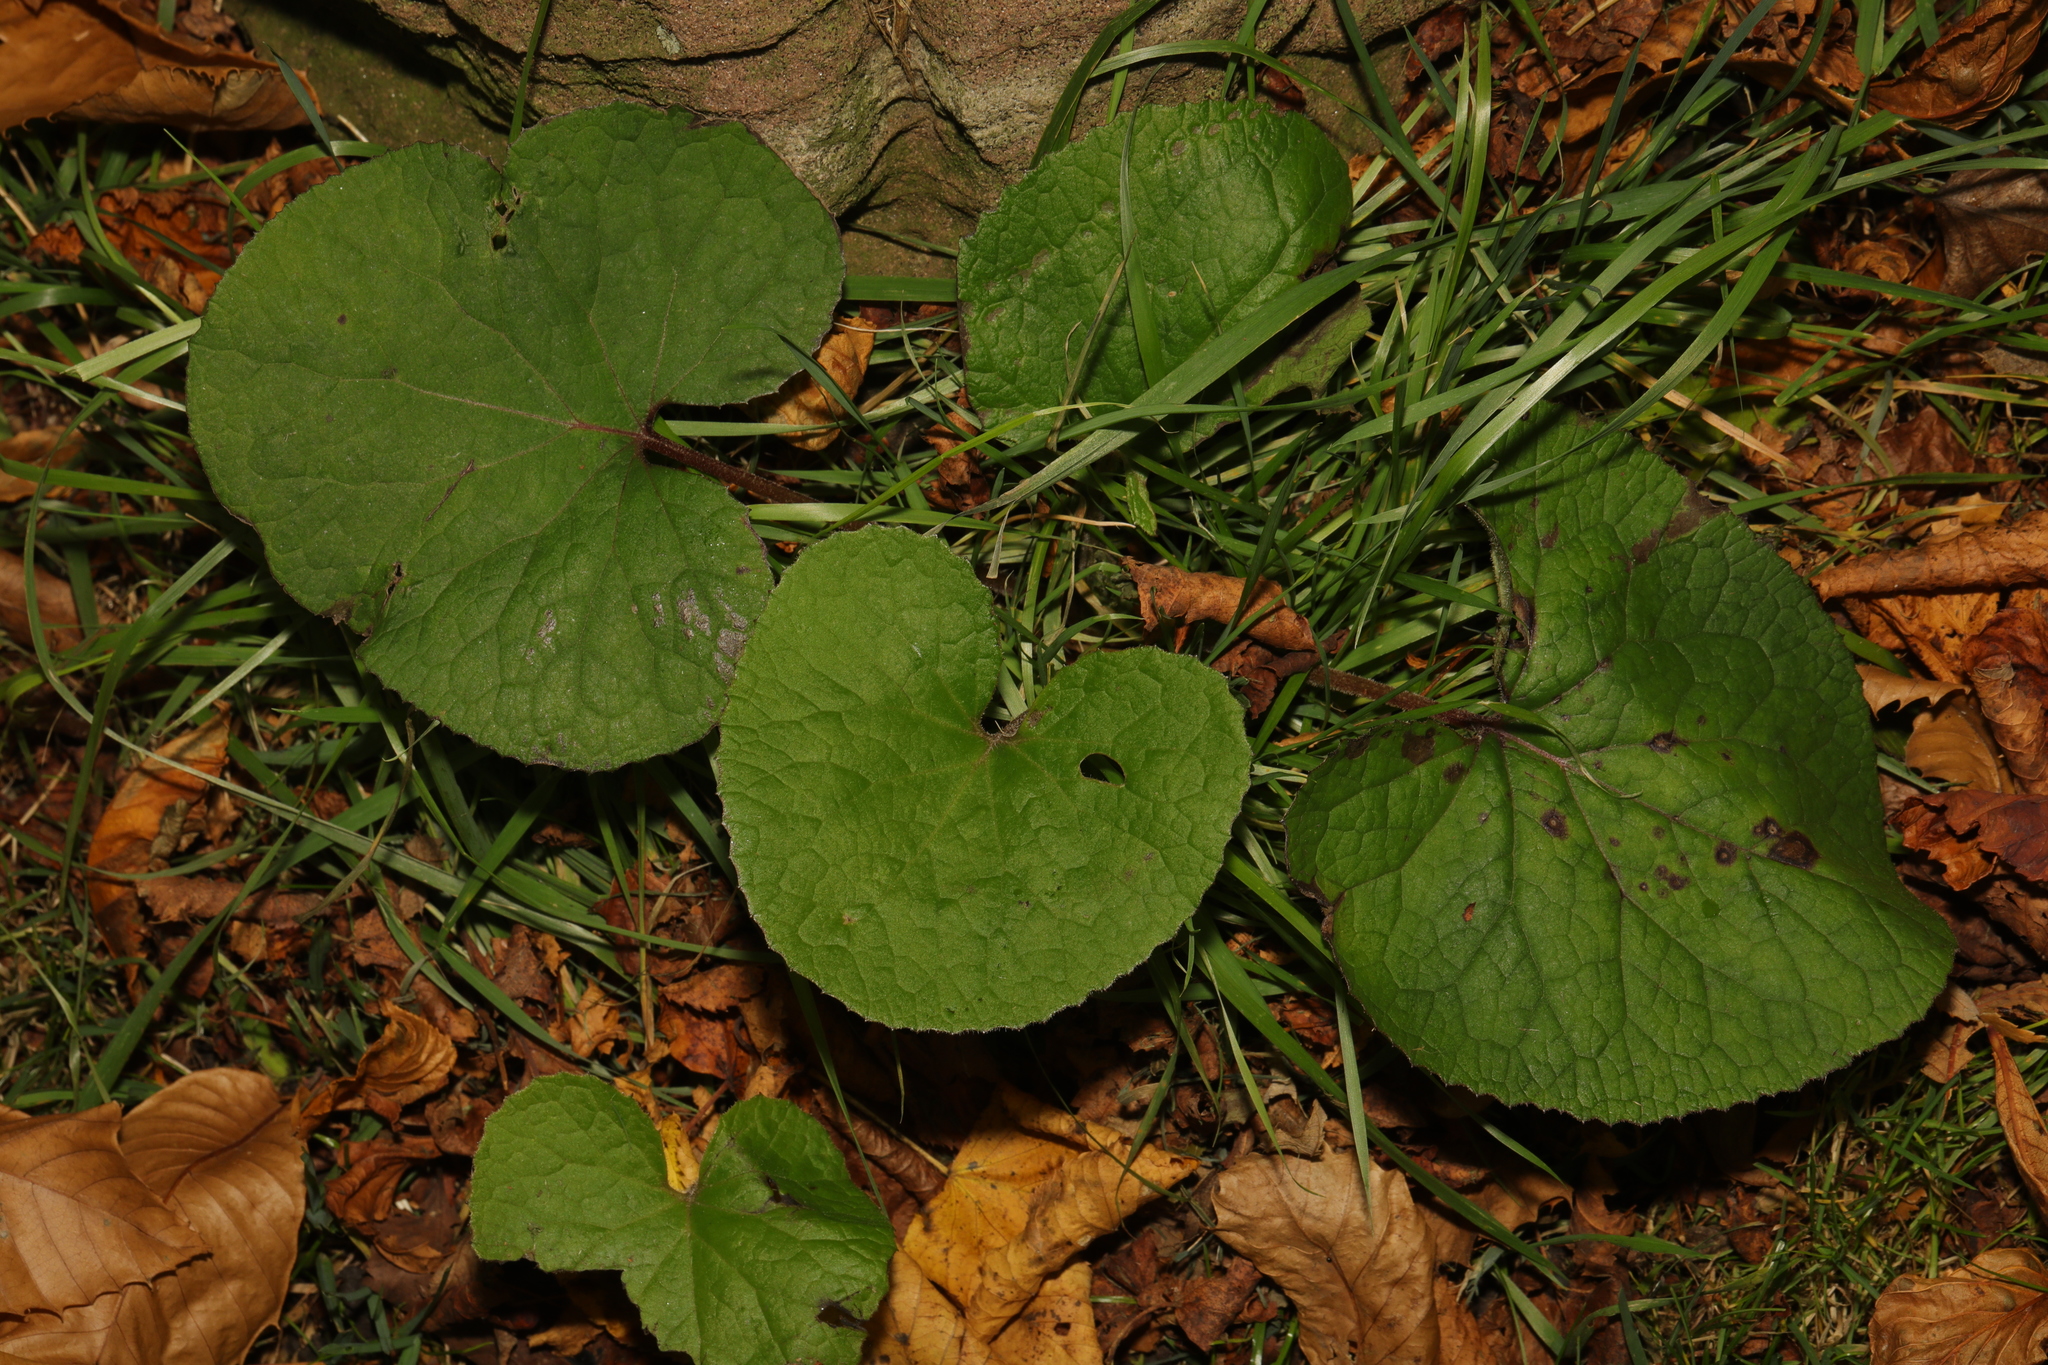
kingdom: Plantae
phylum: Tracheophyta
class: Magnoliopsida
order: Asterales
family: Asteraceae
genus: Petasites
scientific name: Petasites pyrenaicus
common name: Winter heliotrope
